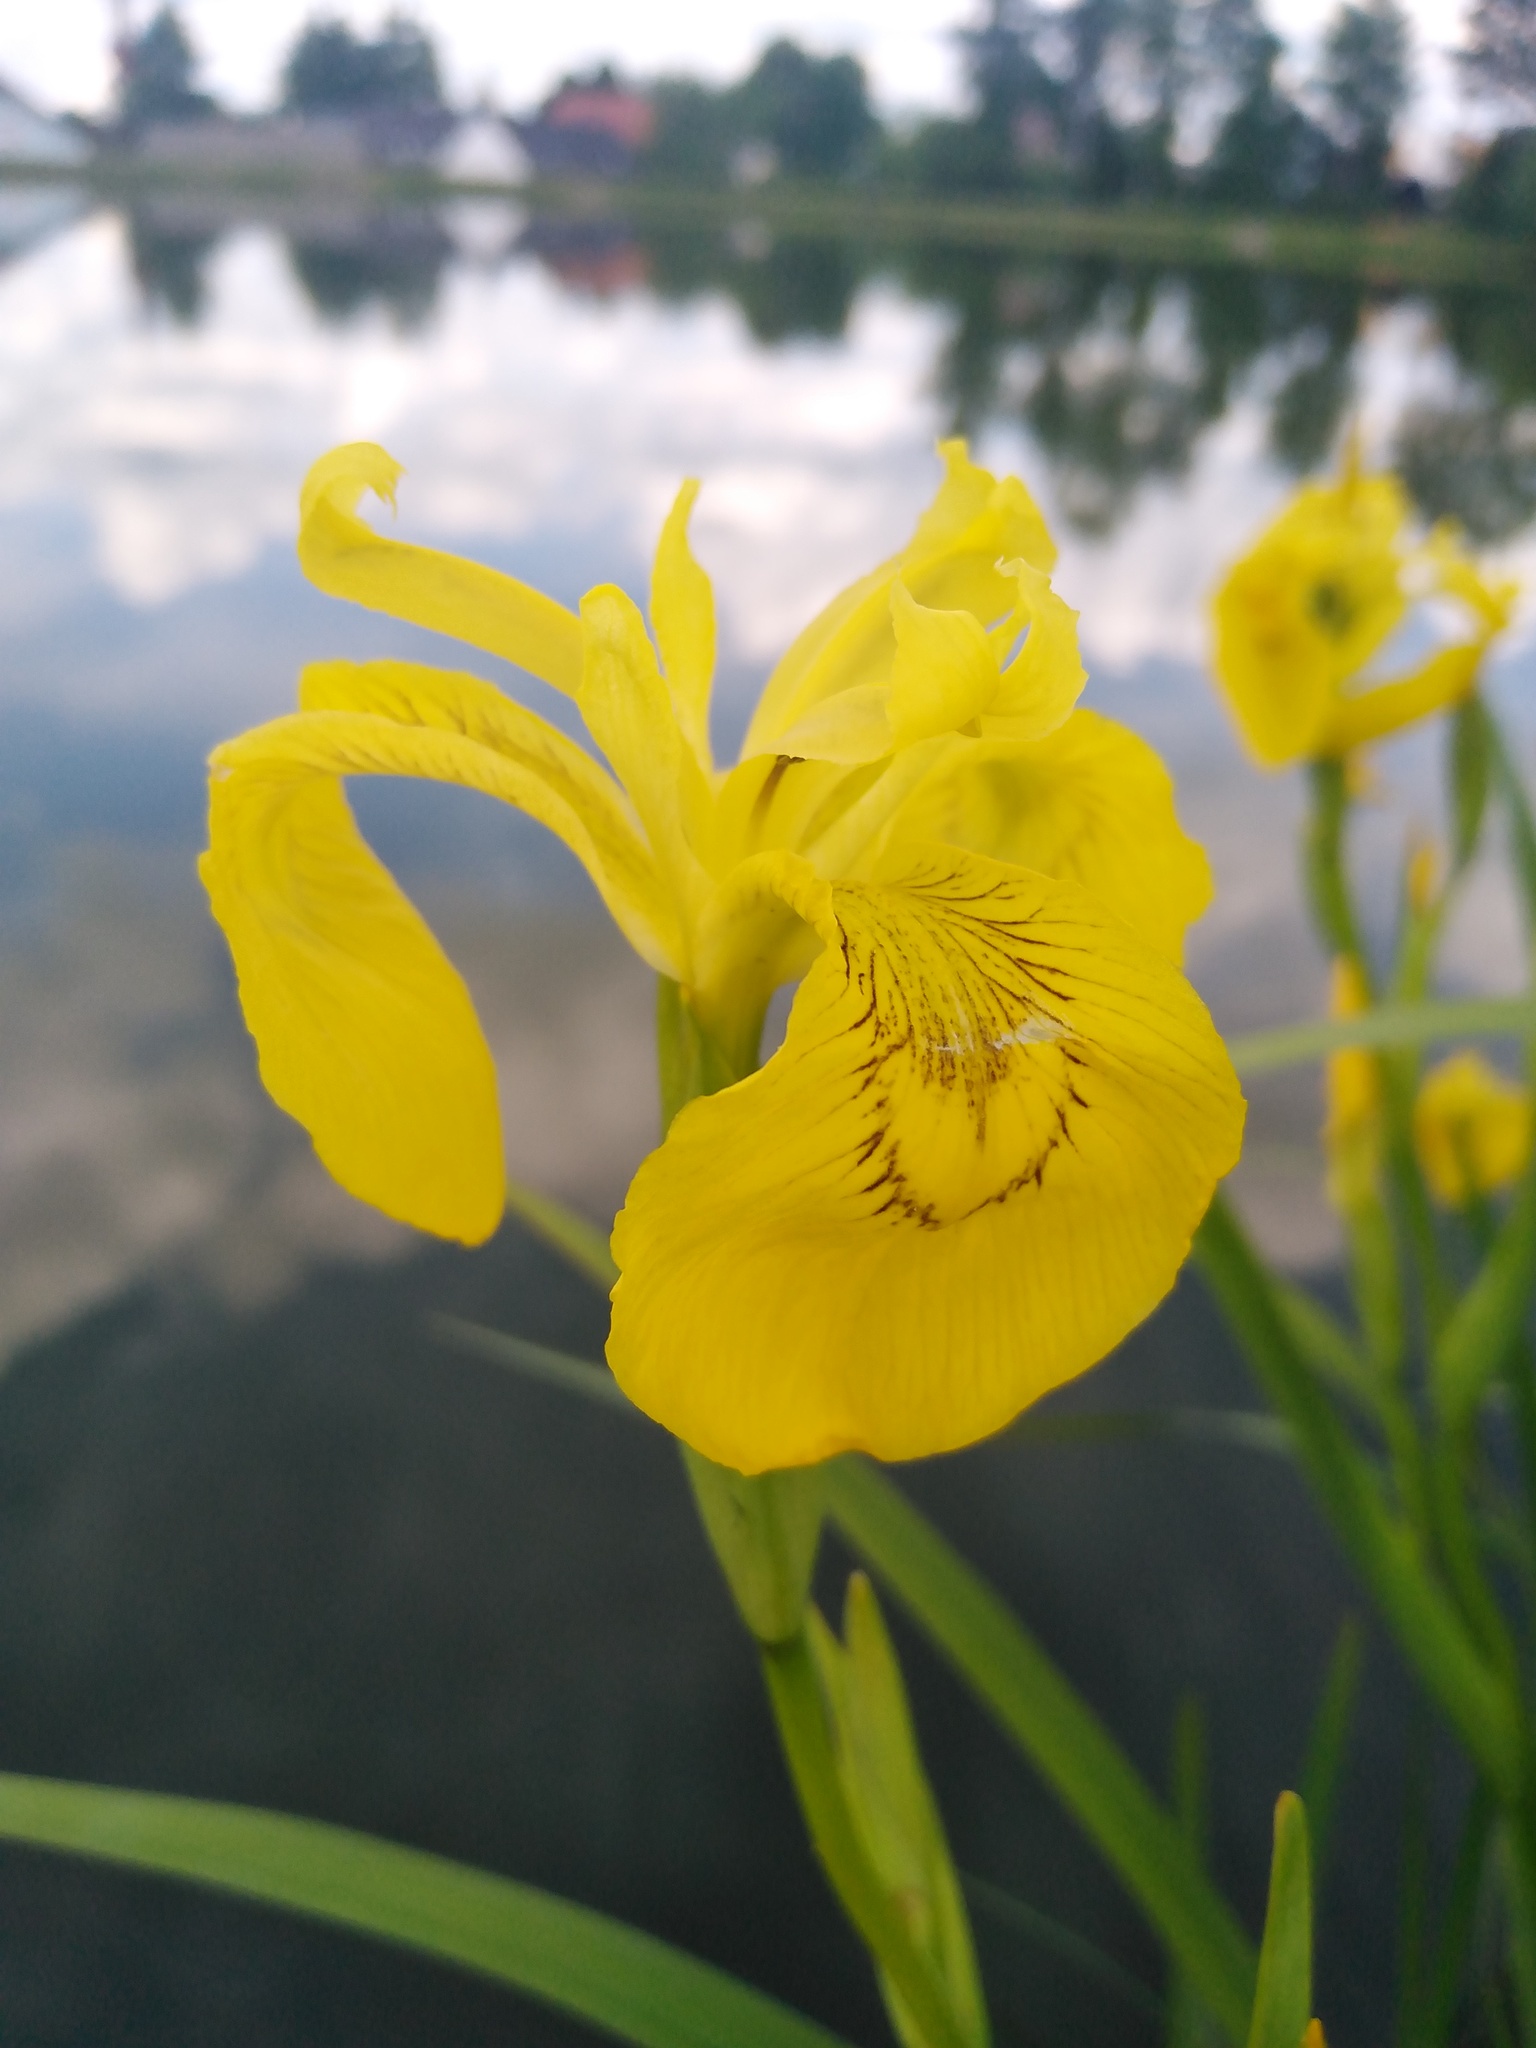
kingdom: Plantae
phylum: Tracheophyta
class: Liliopsida
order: Asparagales
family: Iridaceae
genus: Iris
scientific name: Iris pseudacorus
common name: Yellow flag
